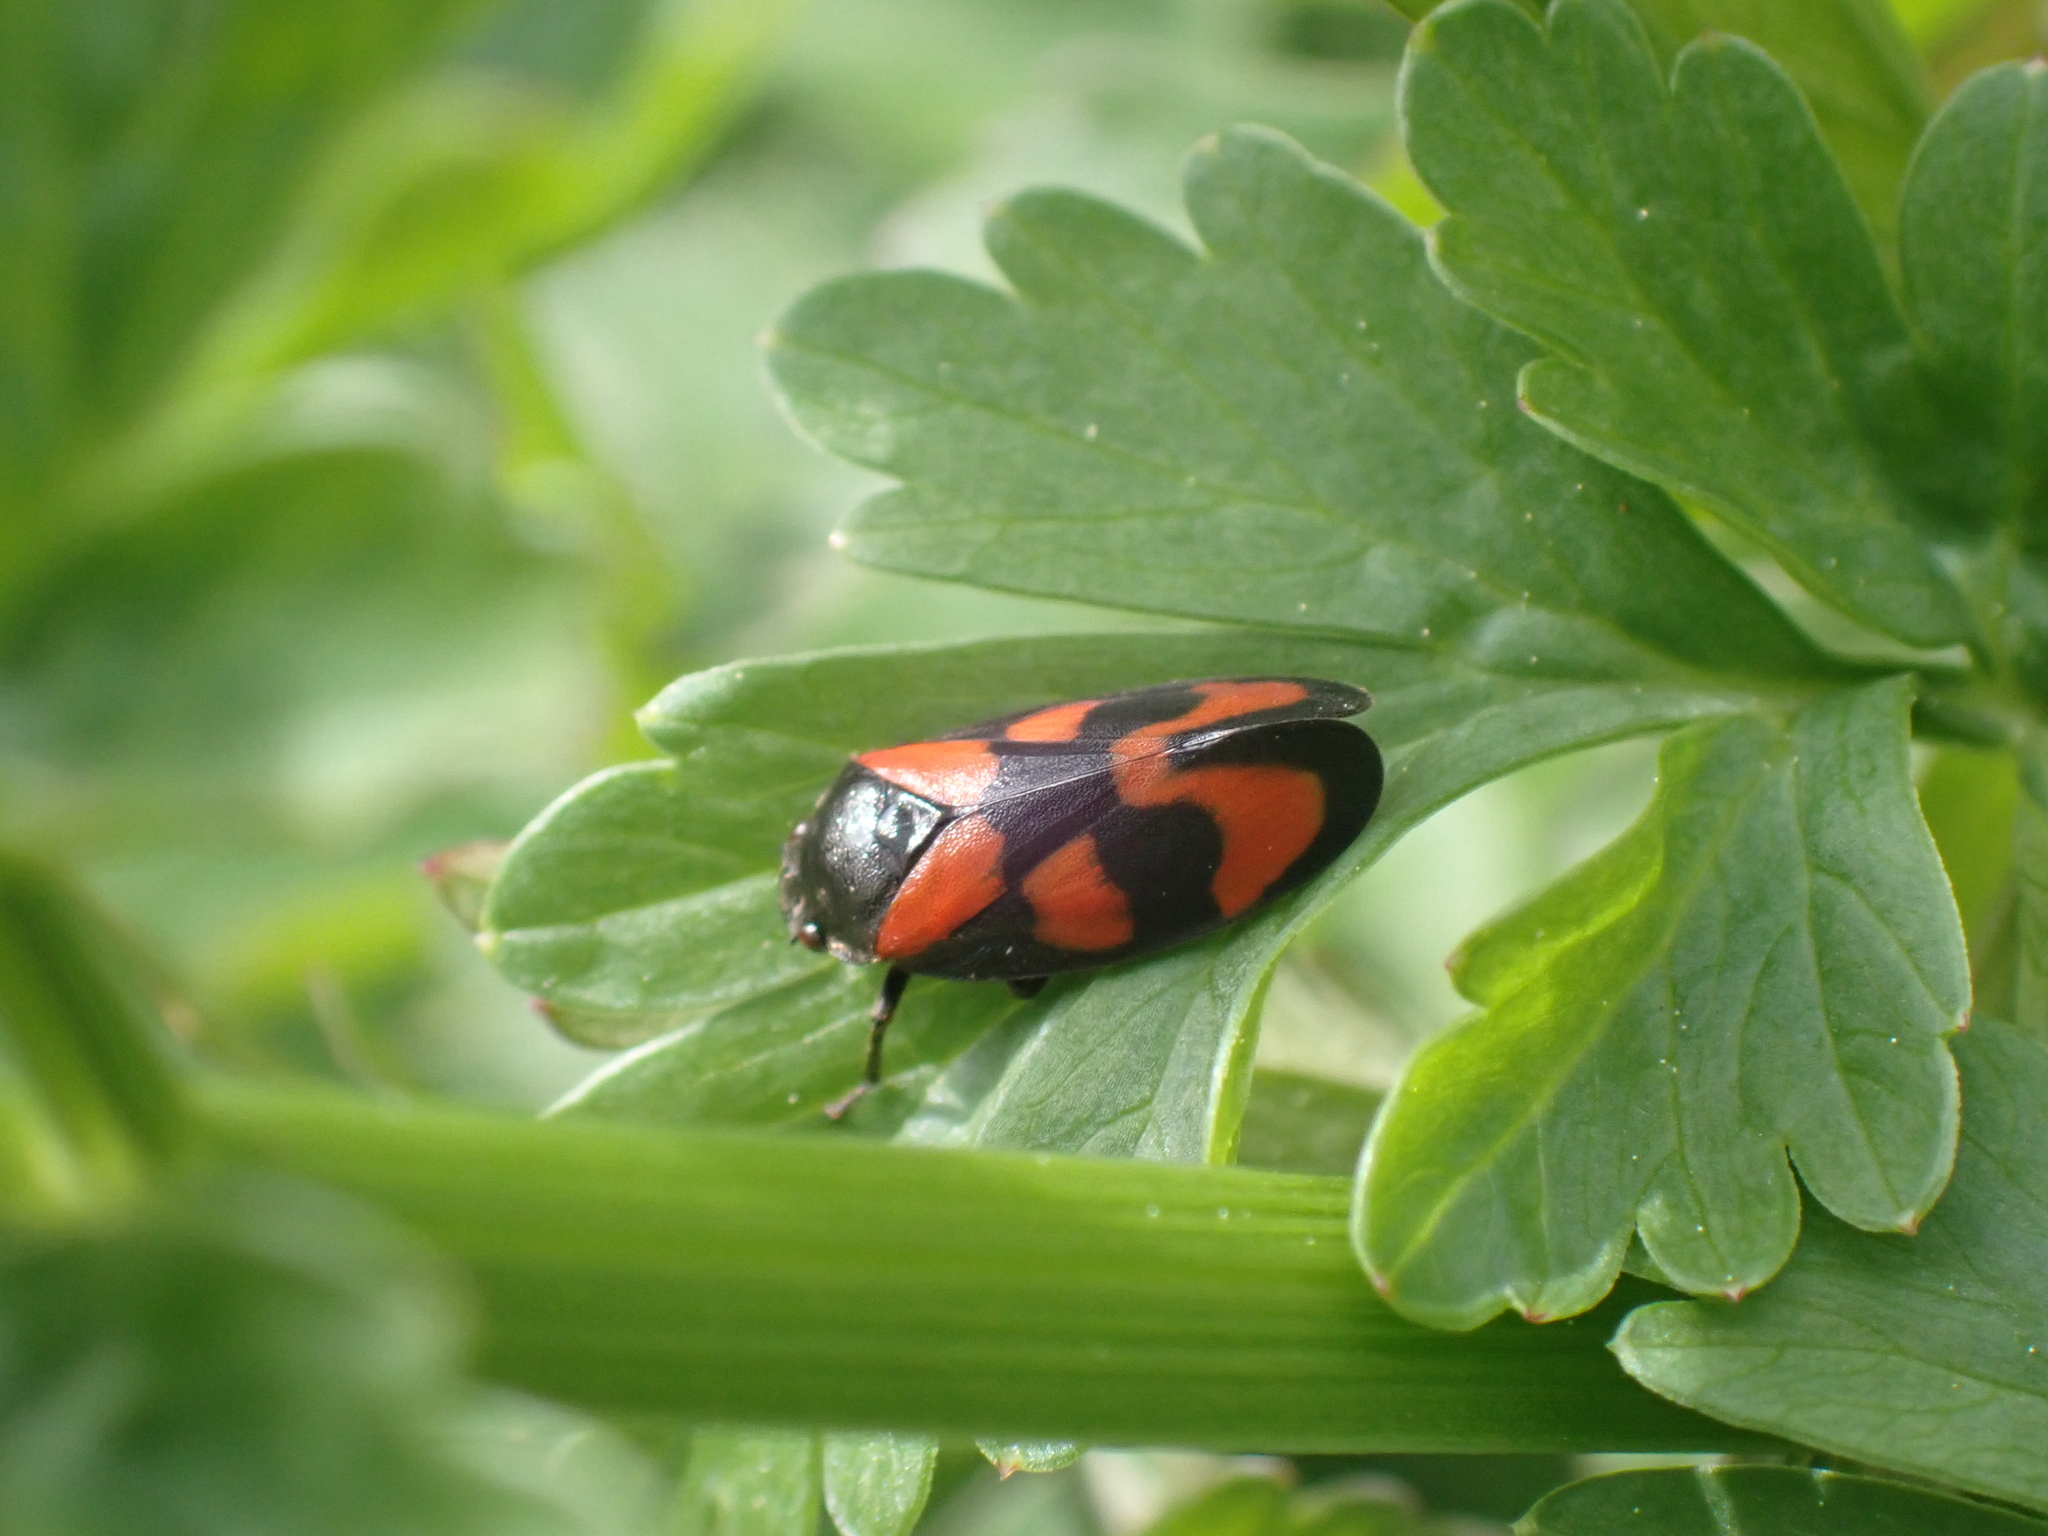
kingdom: Animalia
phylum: Arthropoda
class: Insecta
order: Hemiptera
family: Cercopidae
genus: Cercopis
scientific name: Cercopis vulnerata
